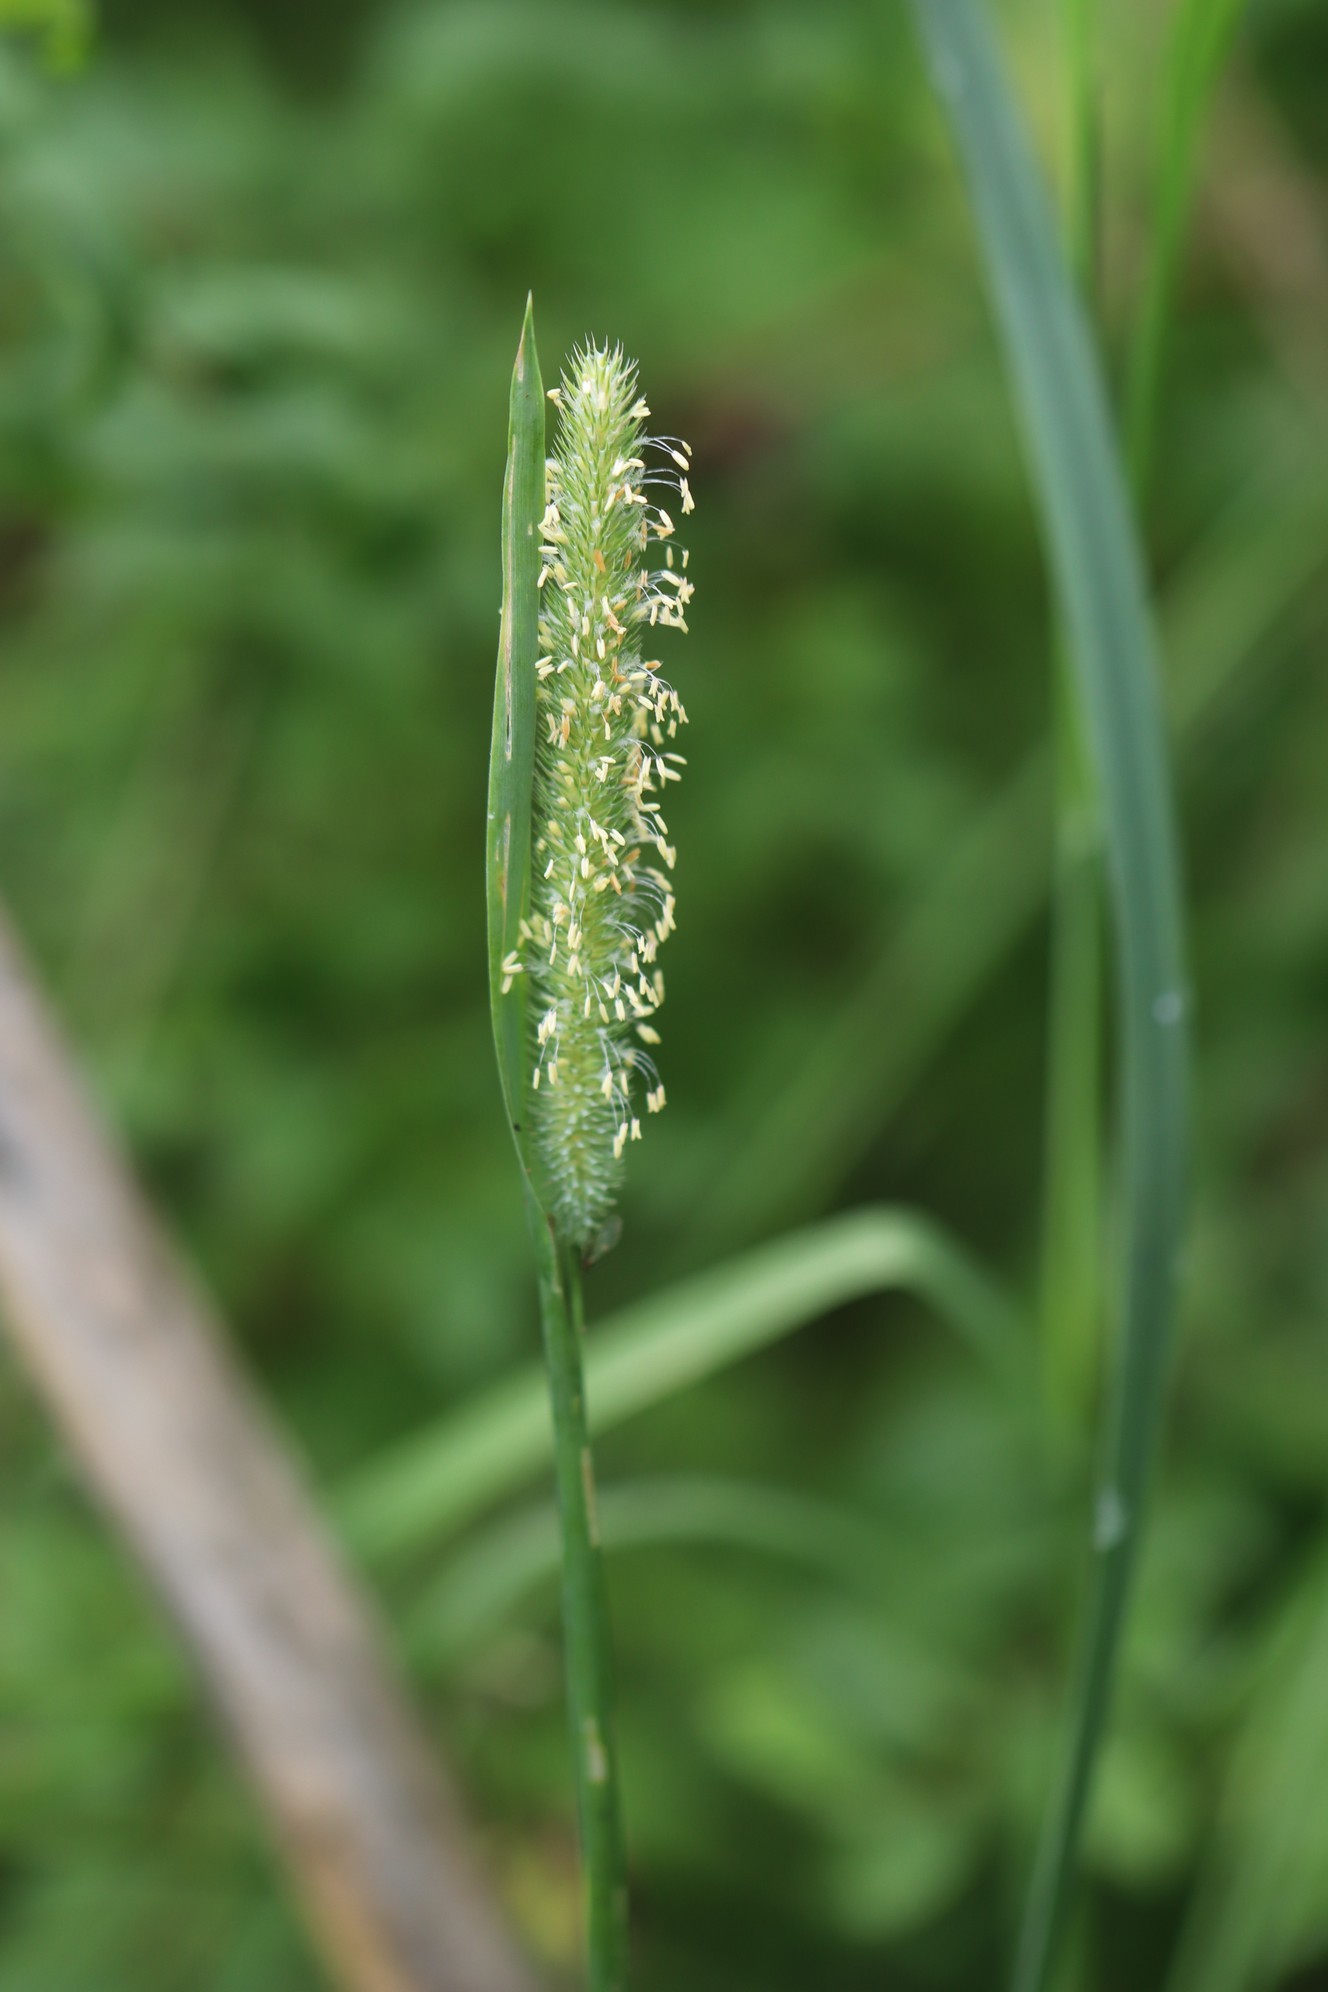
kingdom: Plantae
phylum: Tracheophyta
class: Liliopsida
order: Poales
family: Poaceae
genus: Phleum
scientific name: Phleum pratense
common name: Timothy grass
